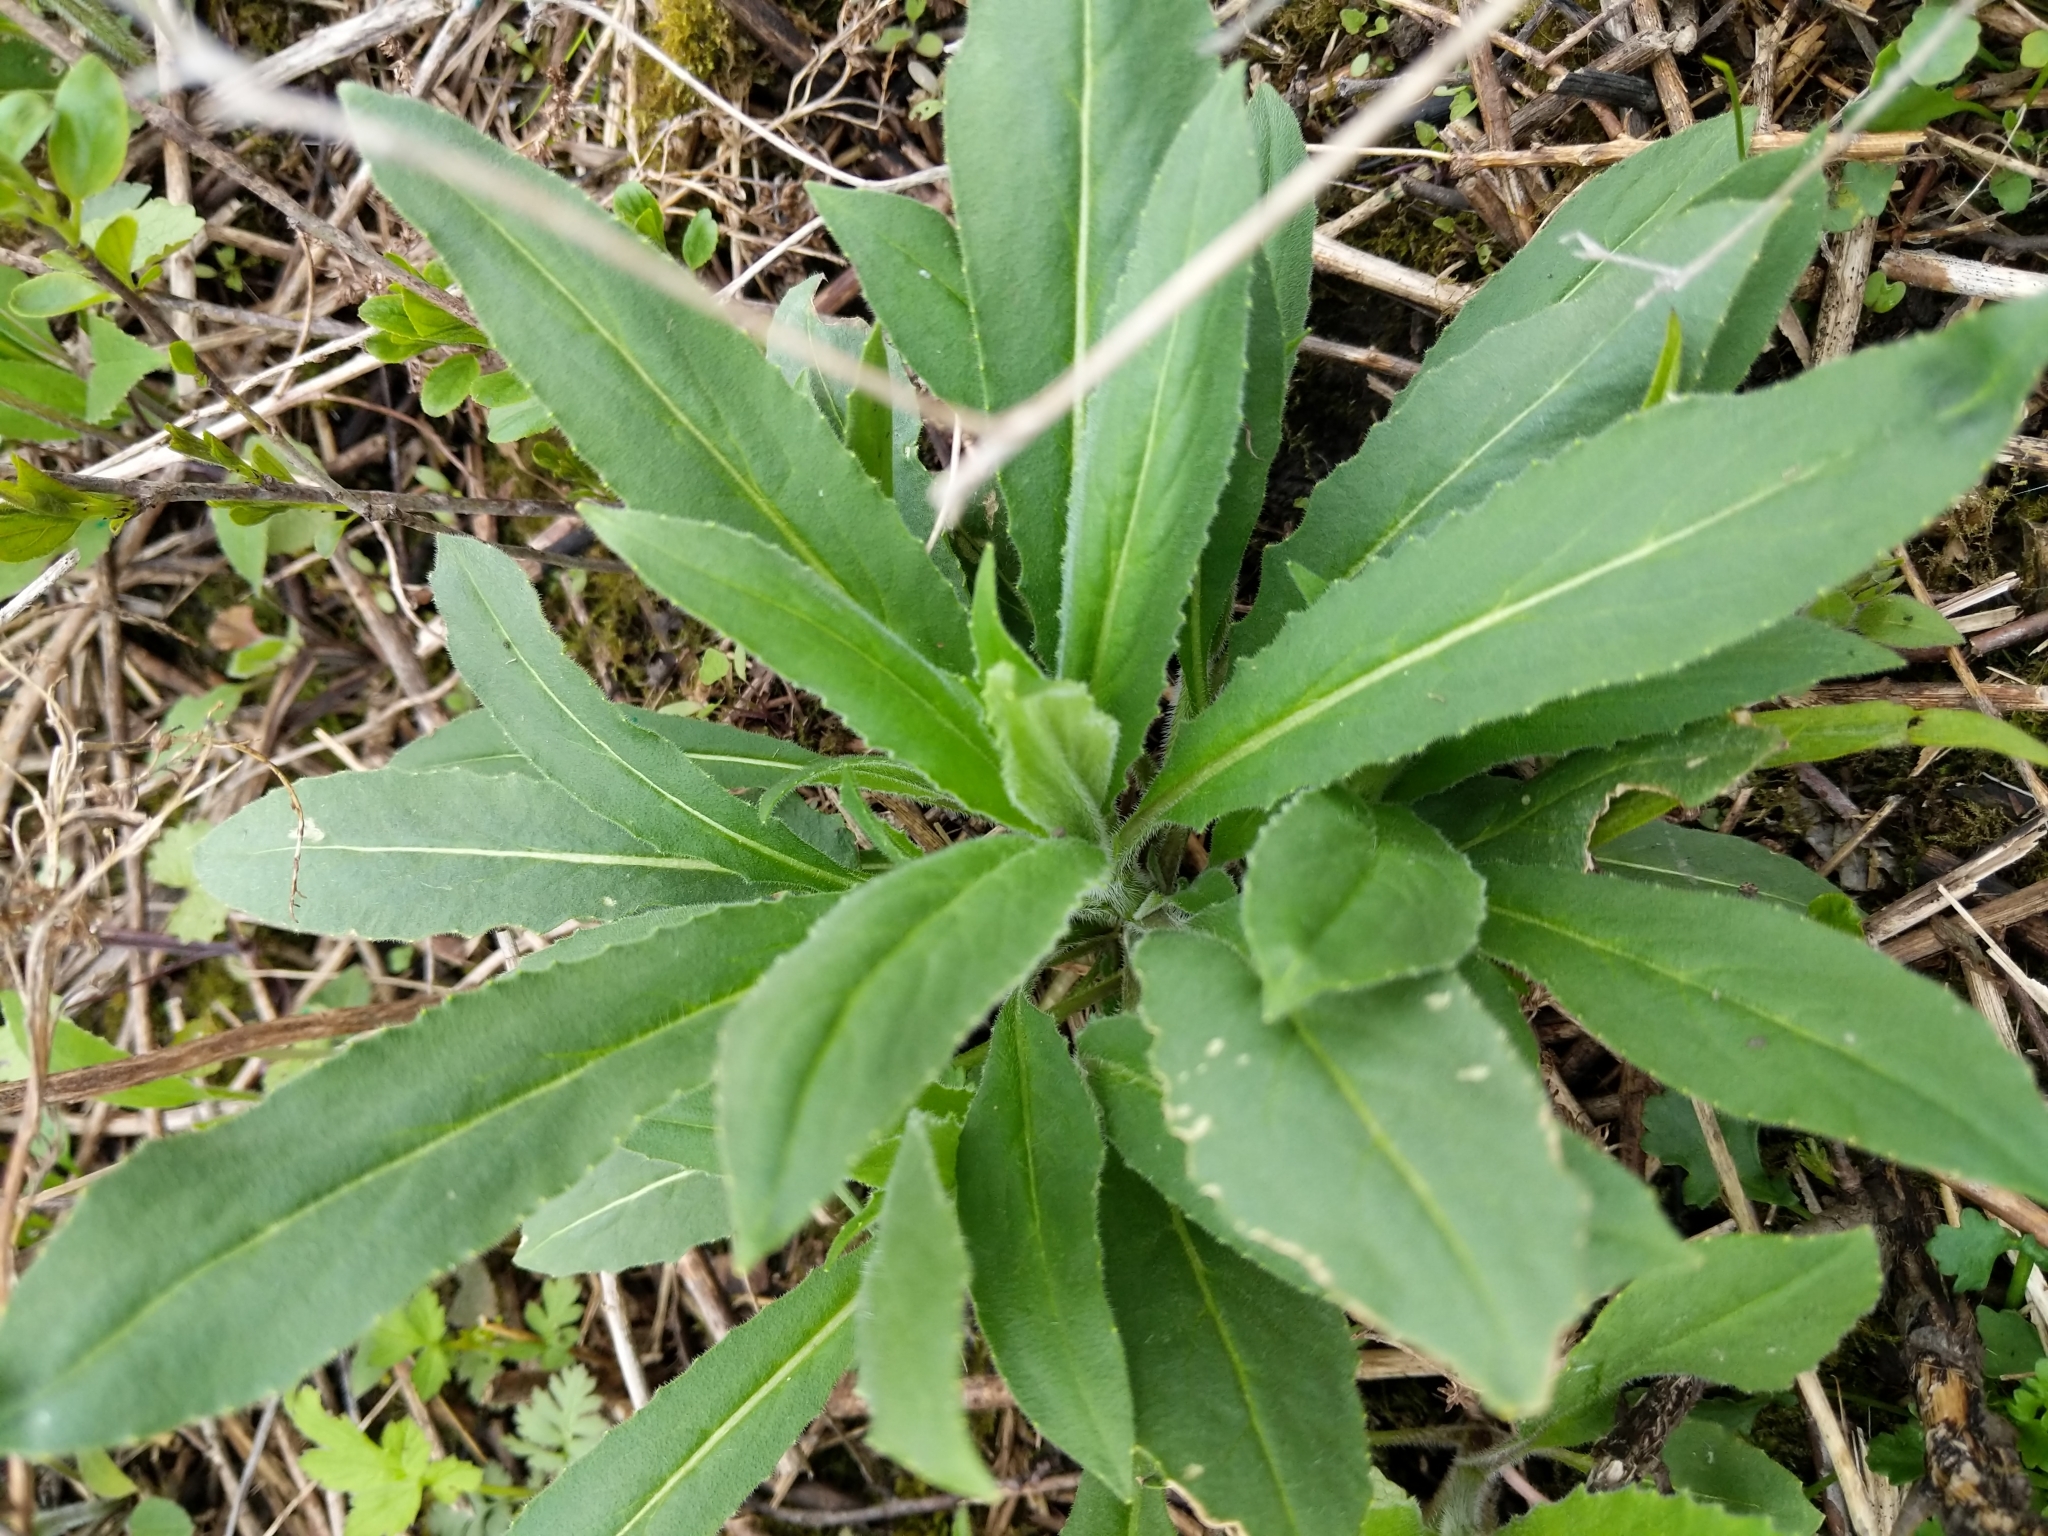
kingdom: Plantae
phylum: Tracheophyta
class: Magnoliopsida
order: Brassicales
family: Brassicaceae
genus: Hesperis
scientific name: Hesperis matronalis
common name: Dame's-violet
